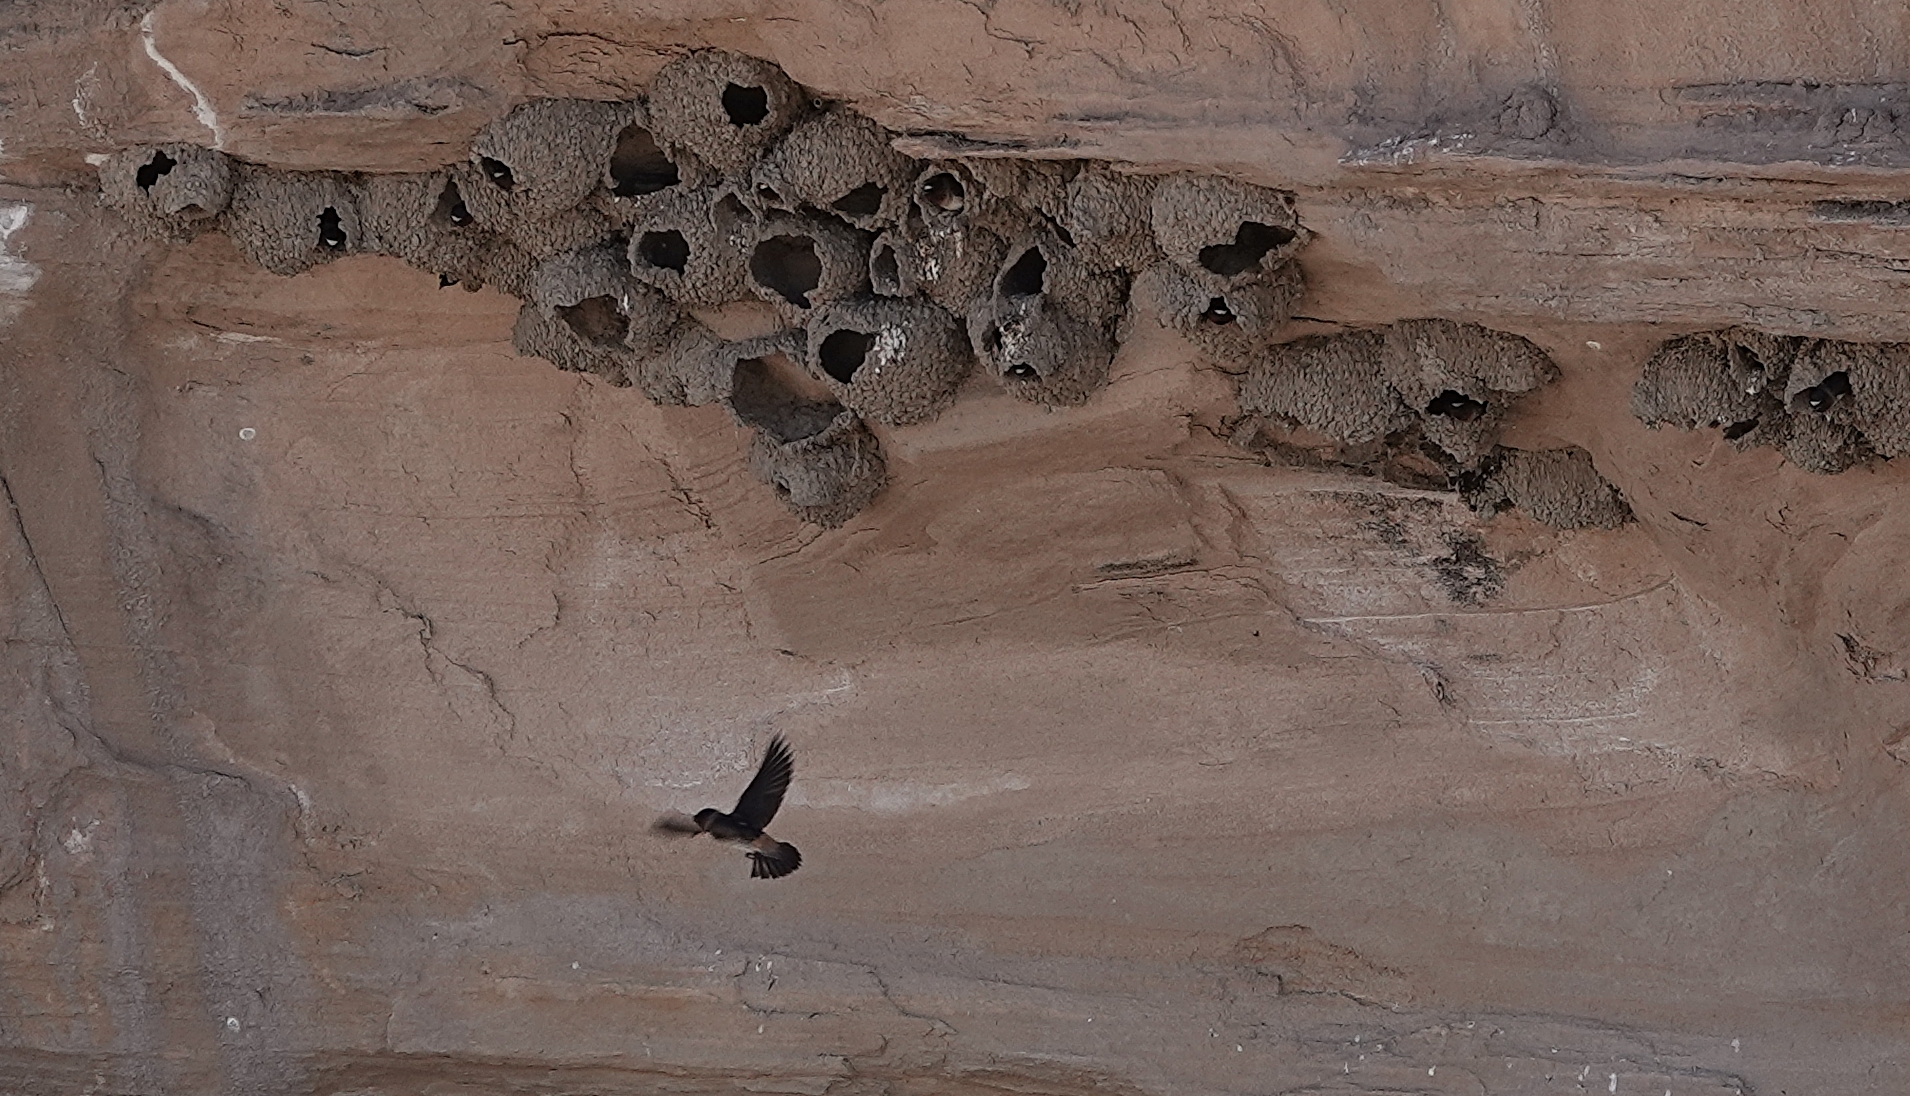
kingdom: Animalia
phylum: Chordata
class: Aves
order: Passeriformes
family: Hirundinidae
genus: Petrochelidon
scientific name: Petrochelidon pyrrhonota
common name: American cliff swallow
